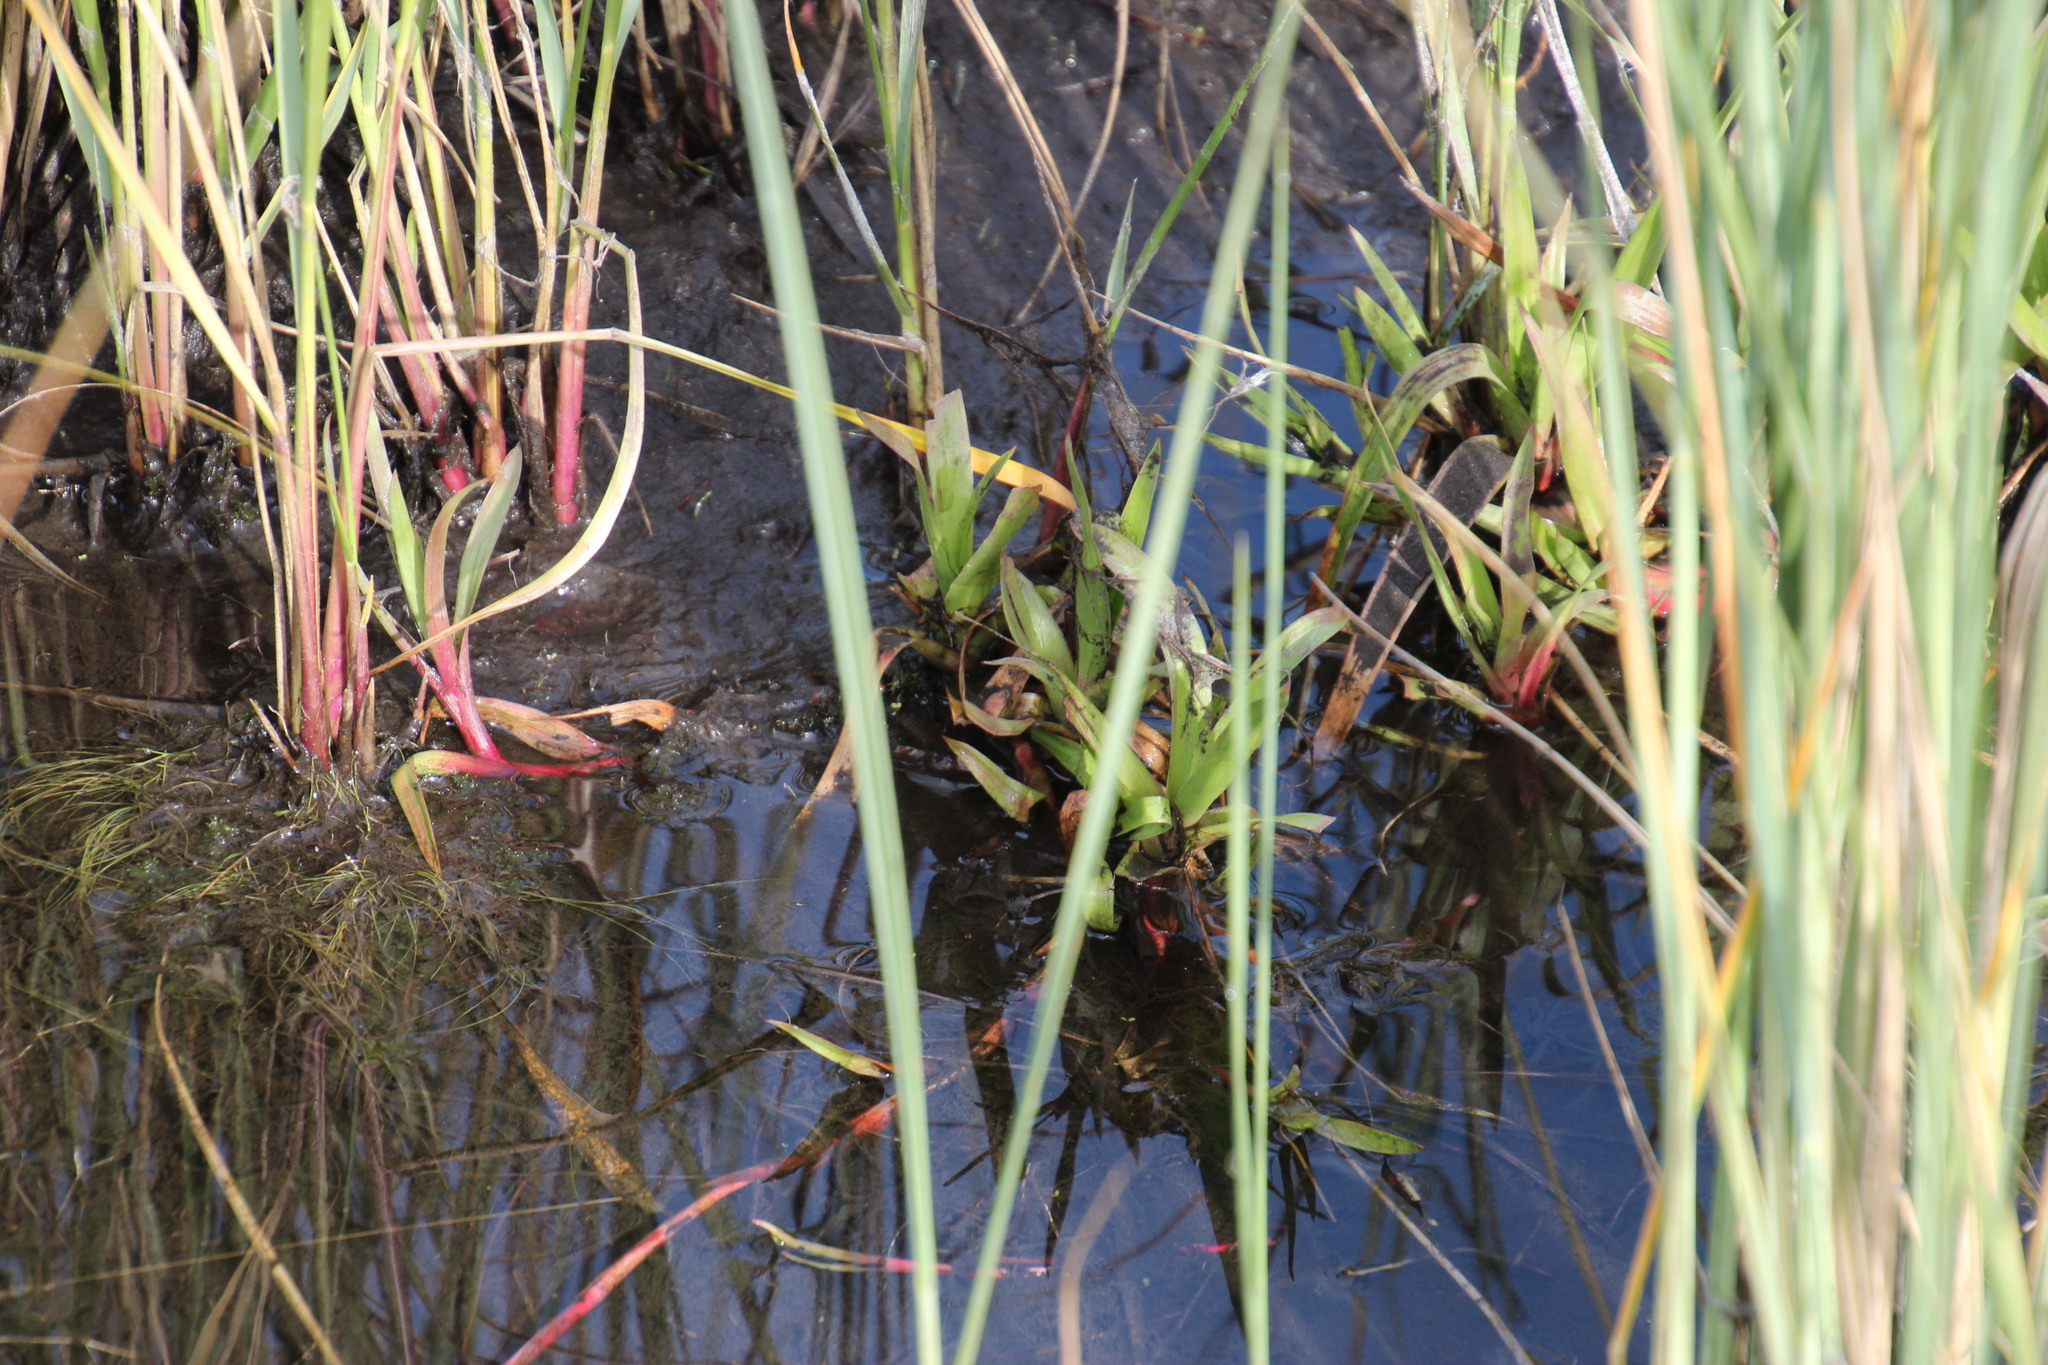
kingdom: Plantae
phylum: Tracheophyta
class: Liliopsida
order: Poales
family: Juncaceae
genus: Juncus
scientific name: Juncus lomatophyllus
